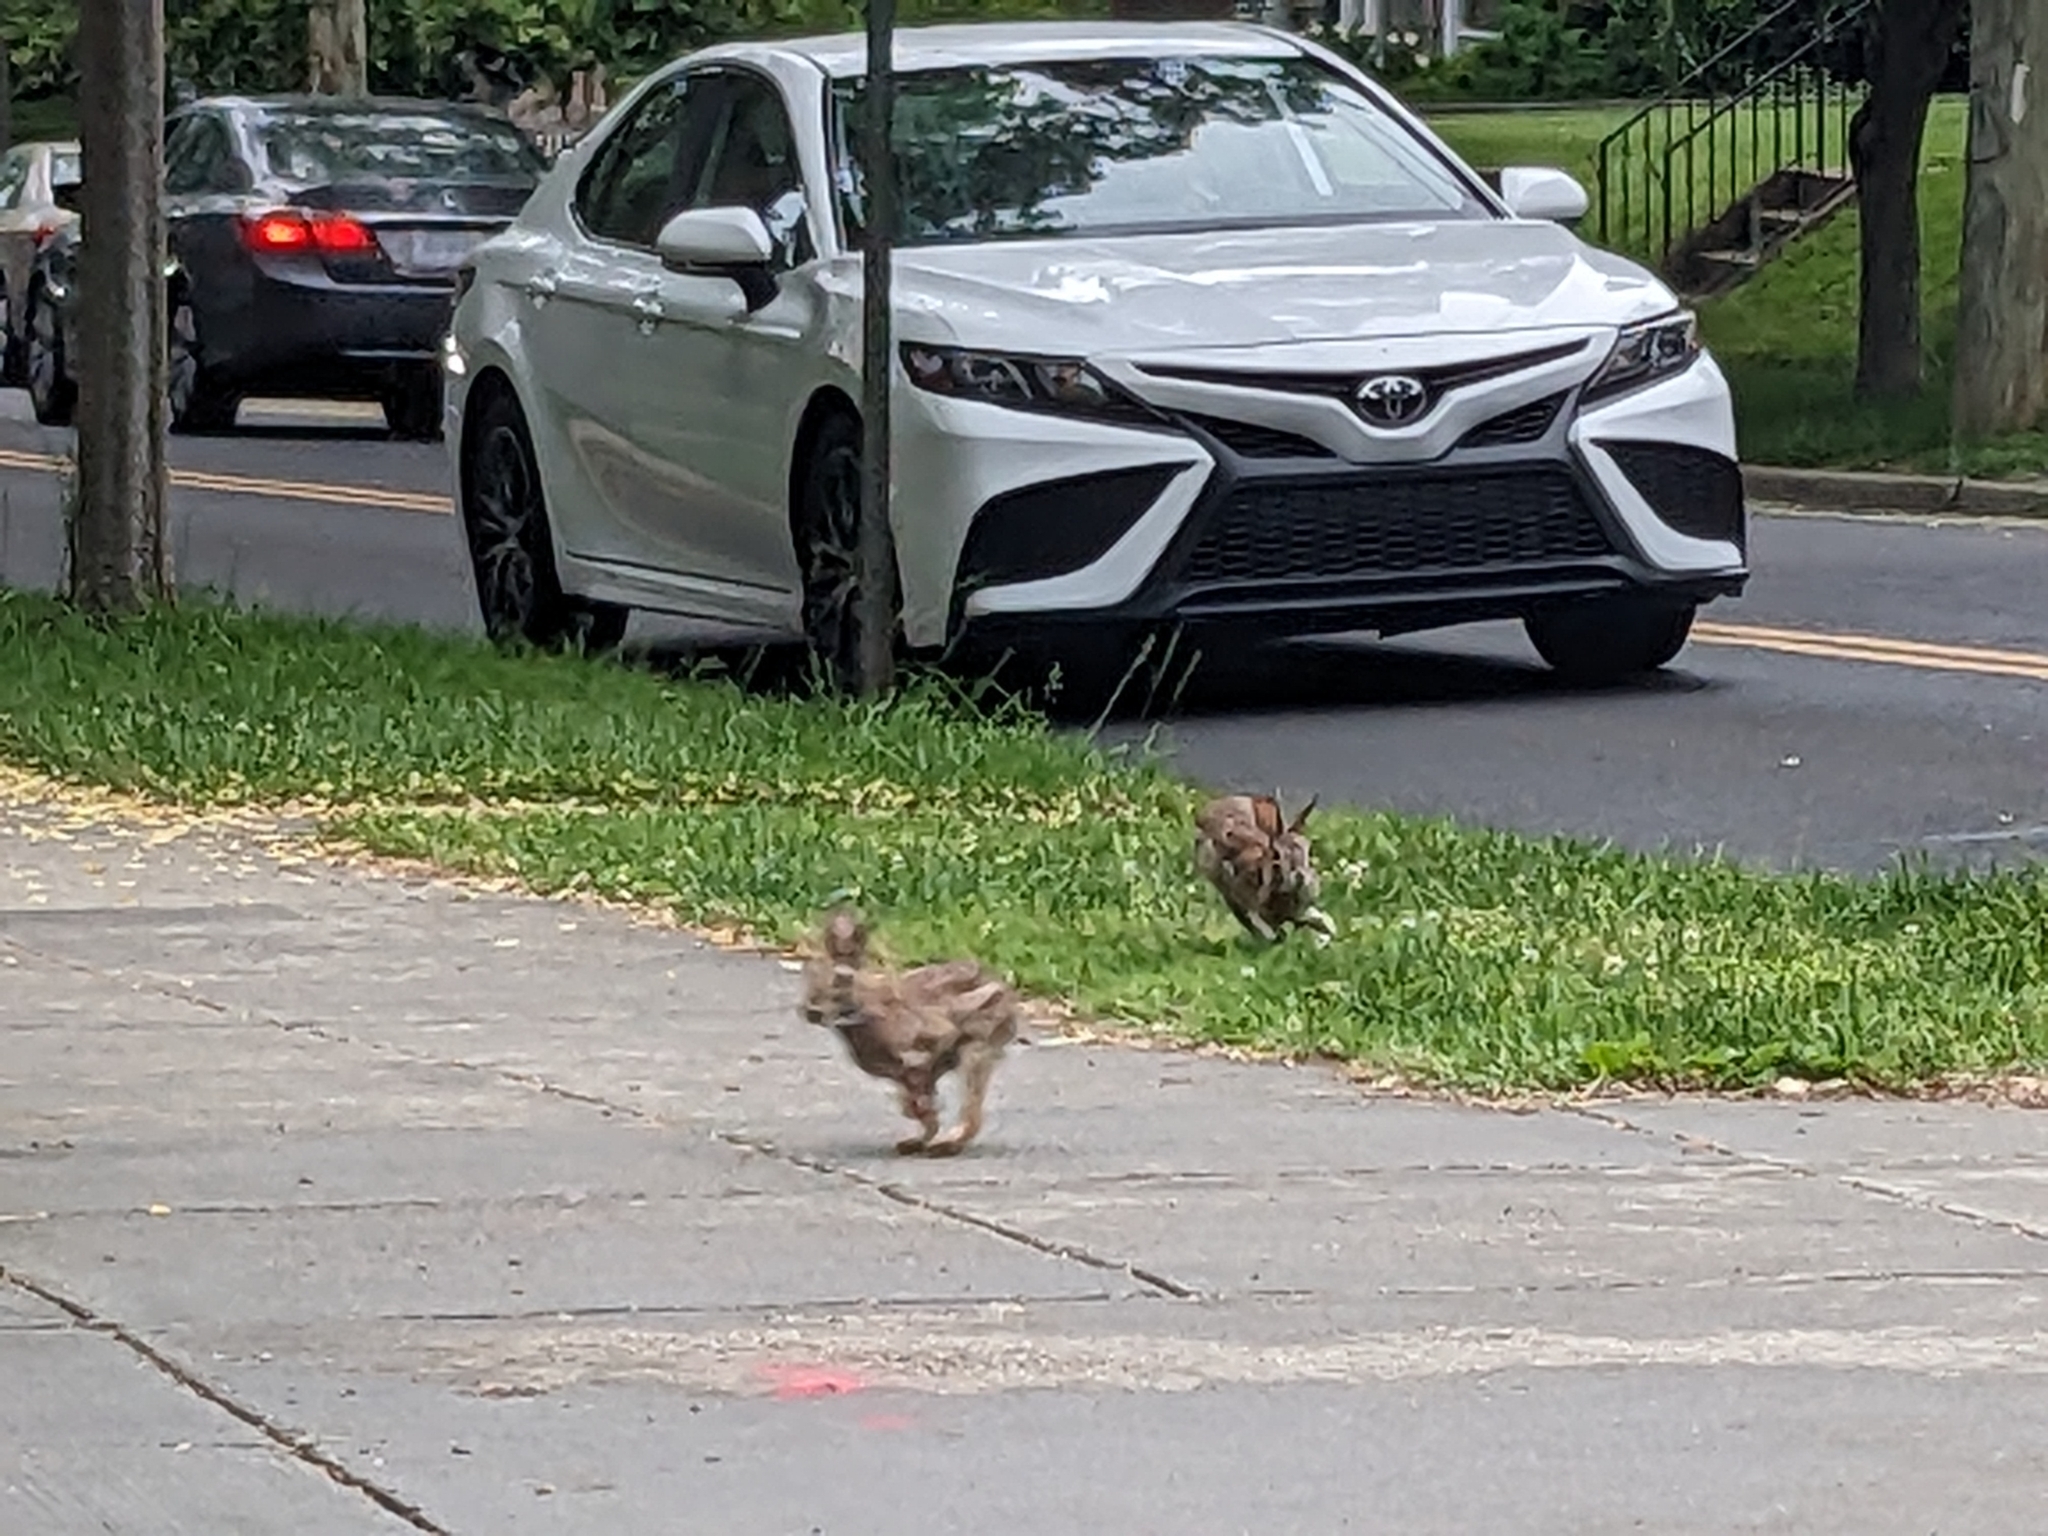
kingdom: Animalia
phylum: Chordata
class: Mammalia
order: Lagomorpha
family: Leporidae
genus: Sylvilagus
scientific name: Sylvilagus floridanus
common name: Eastern cottontail
